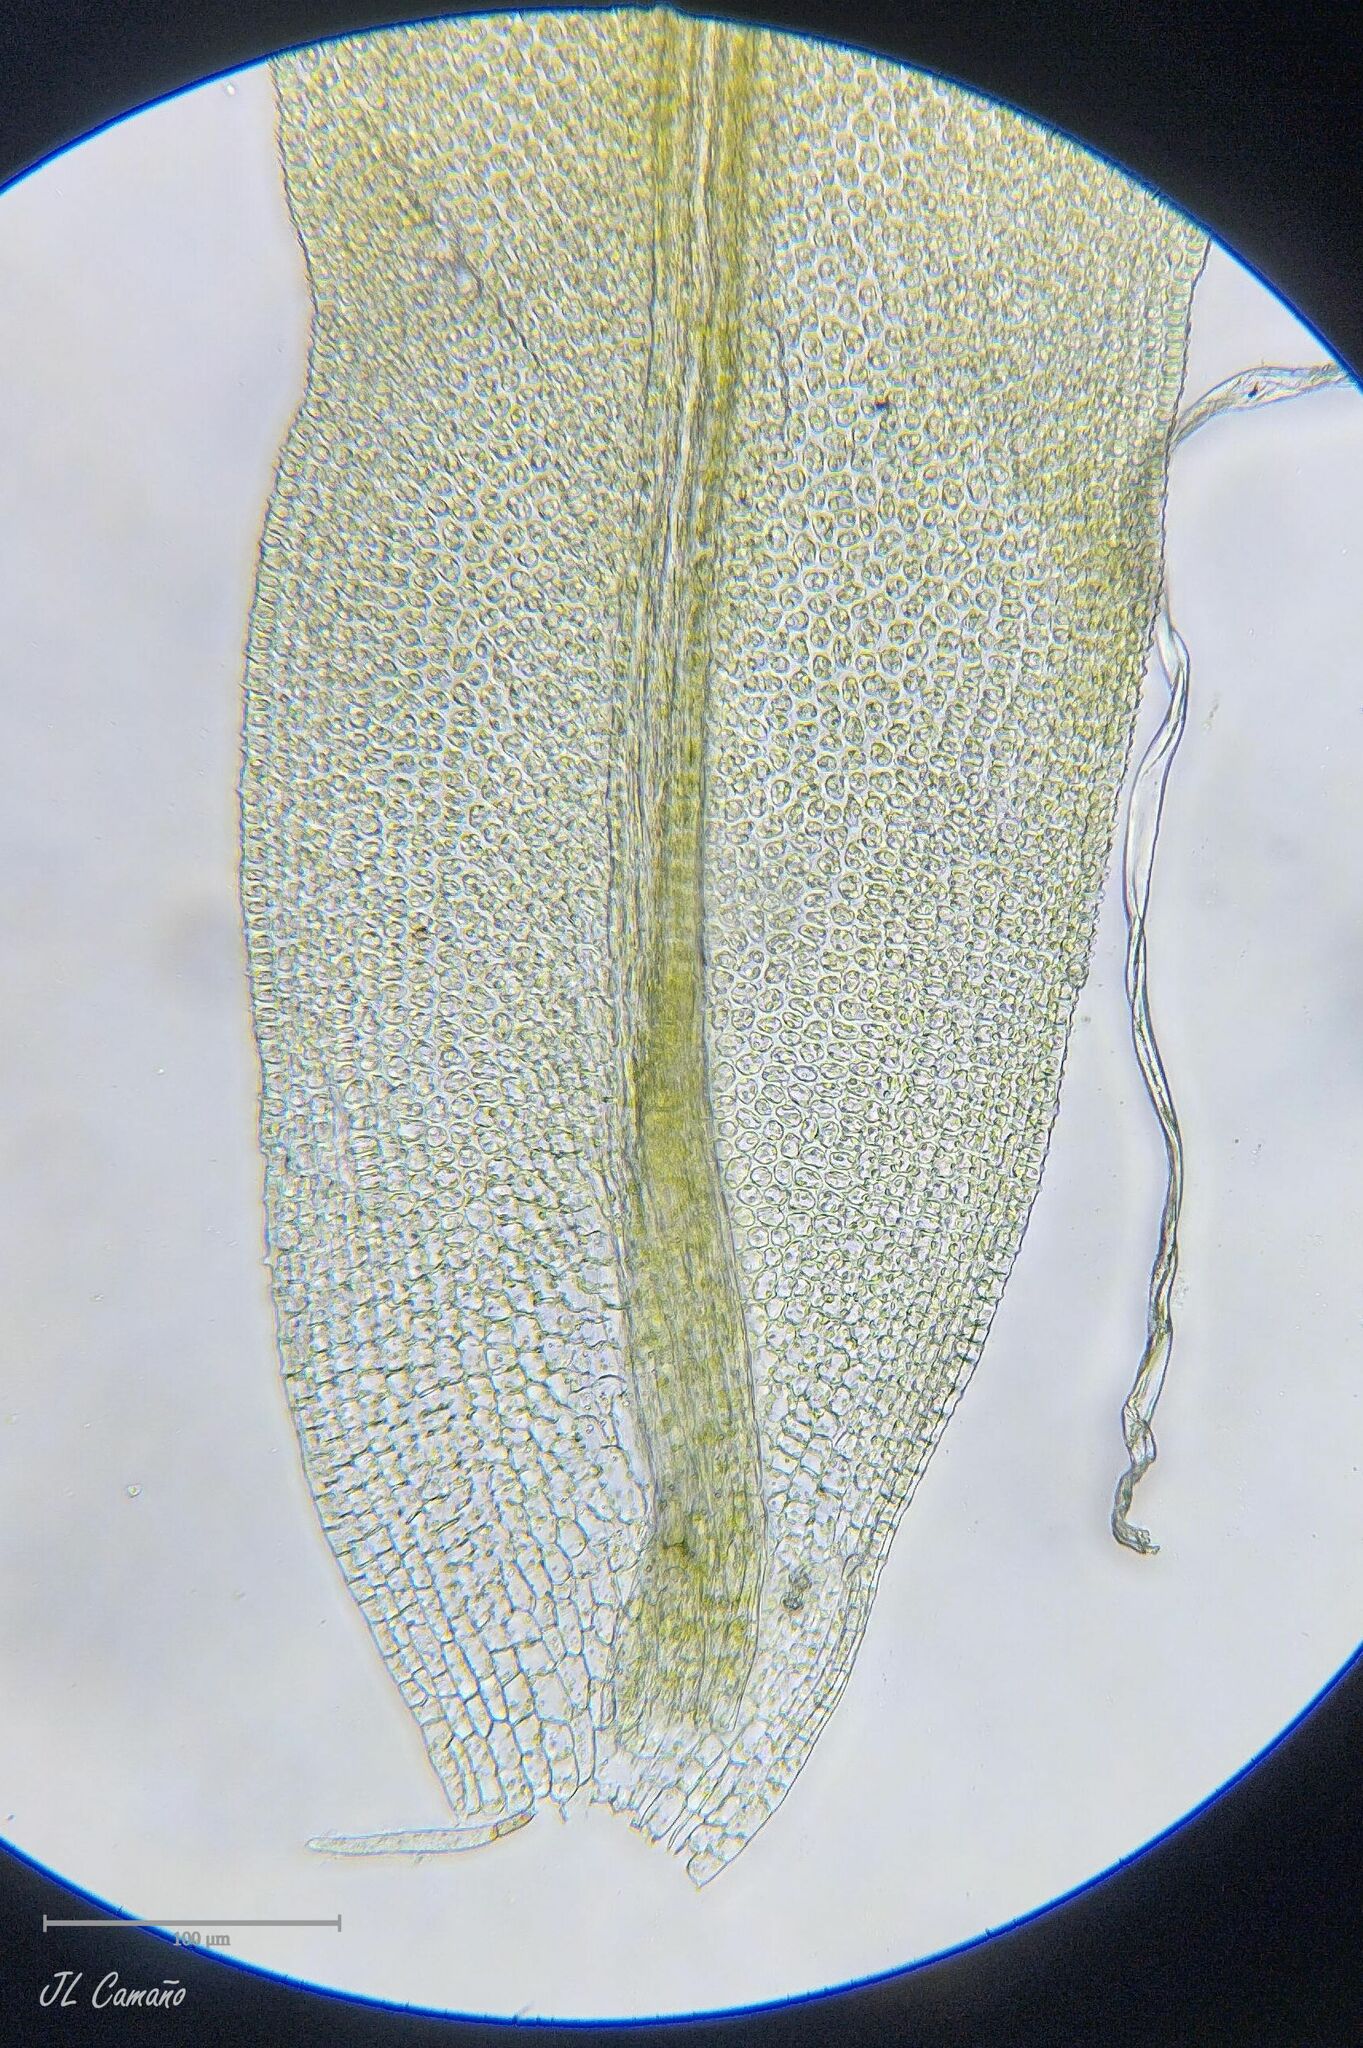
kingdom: Plantae
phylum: Bryophyta
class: Bryopsida
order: Orthotrichales
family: Orthotrichaceae
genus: Zygodon
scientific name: Zygodon rupestris
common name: Park yoke moss
